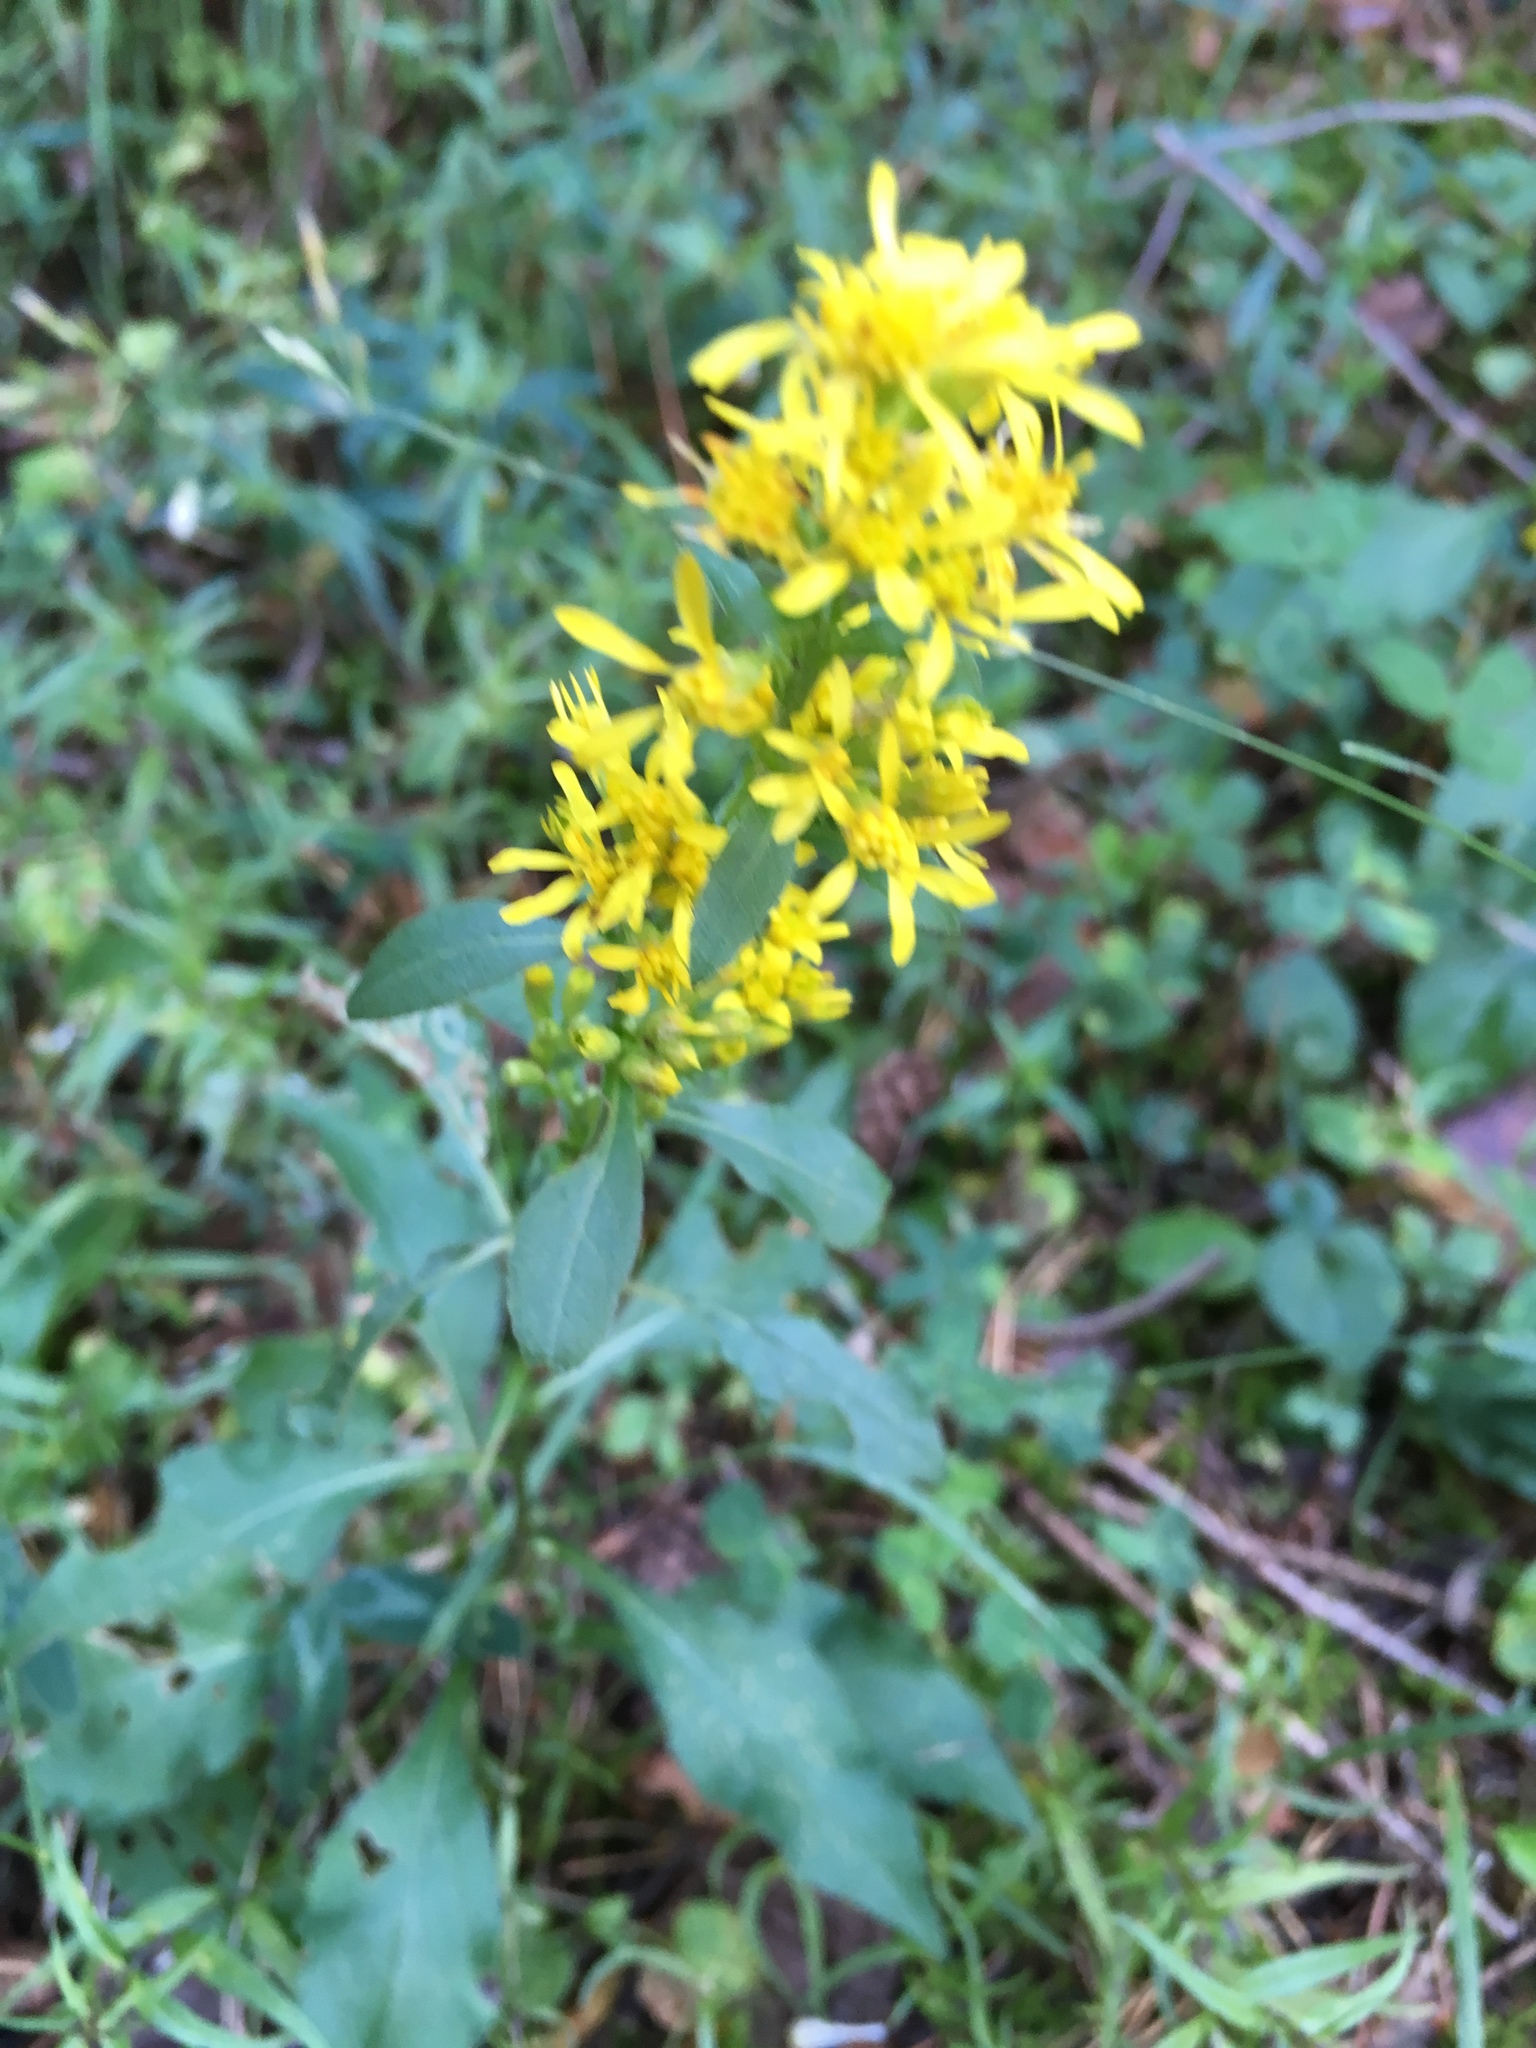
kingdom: Plantae
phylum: Tracheophyta
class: Magnoliopsida
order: Asterales
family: Asteraceae
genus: Solidago
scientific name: Solidago virgaurea
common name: Goldenrod
